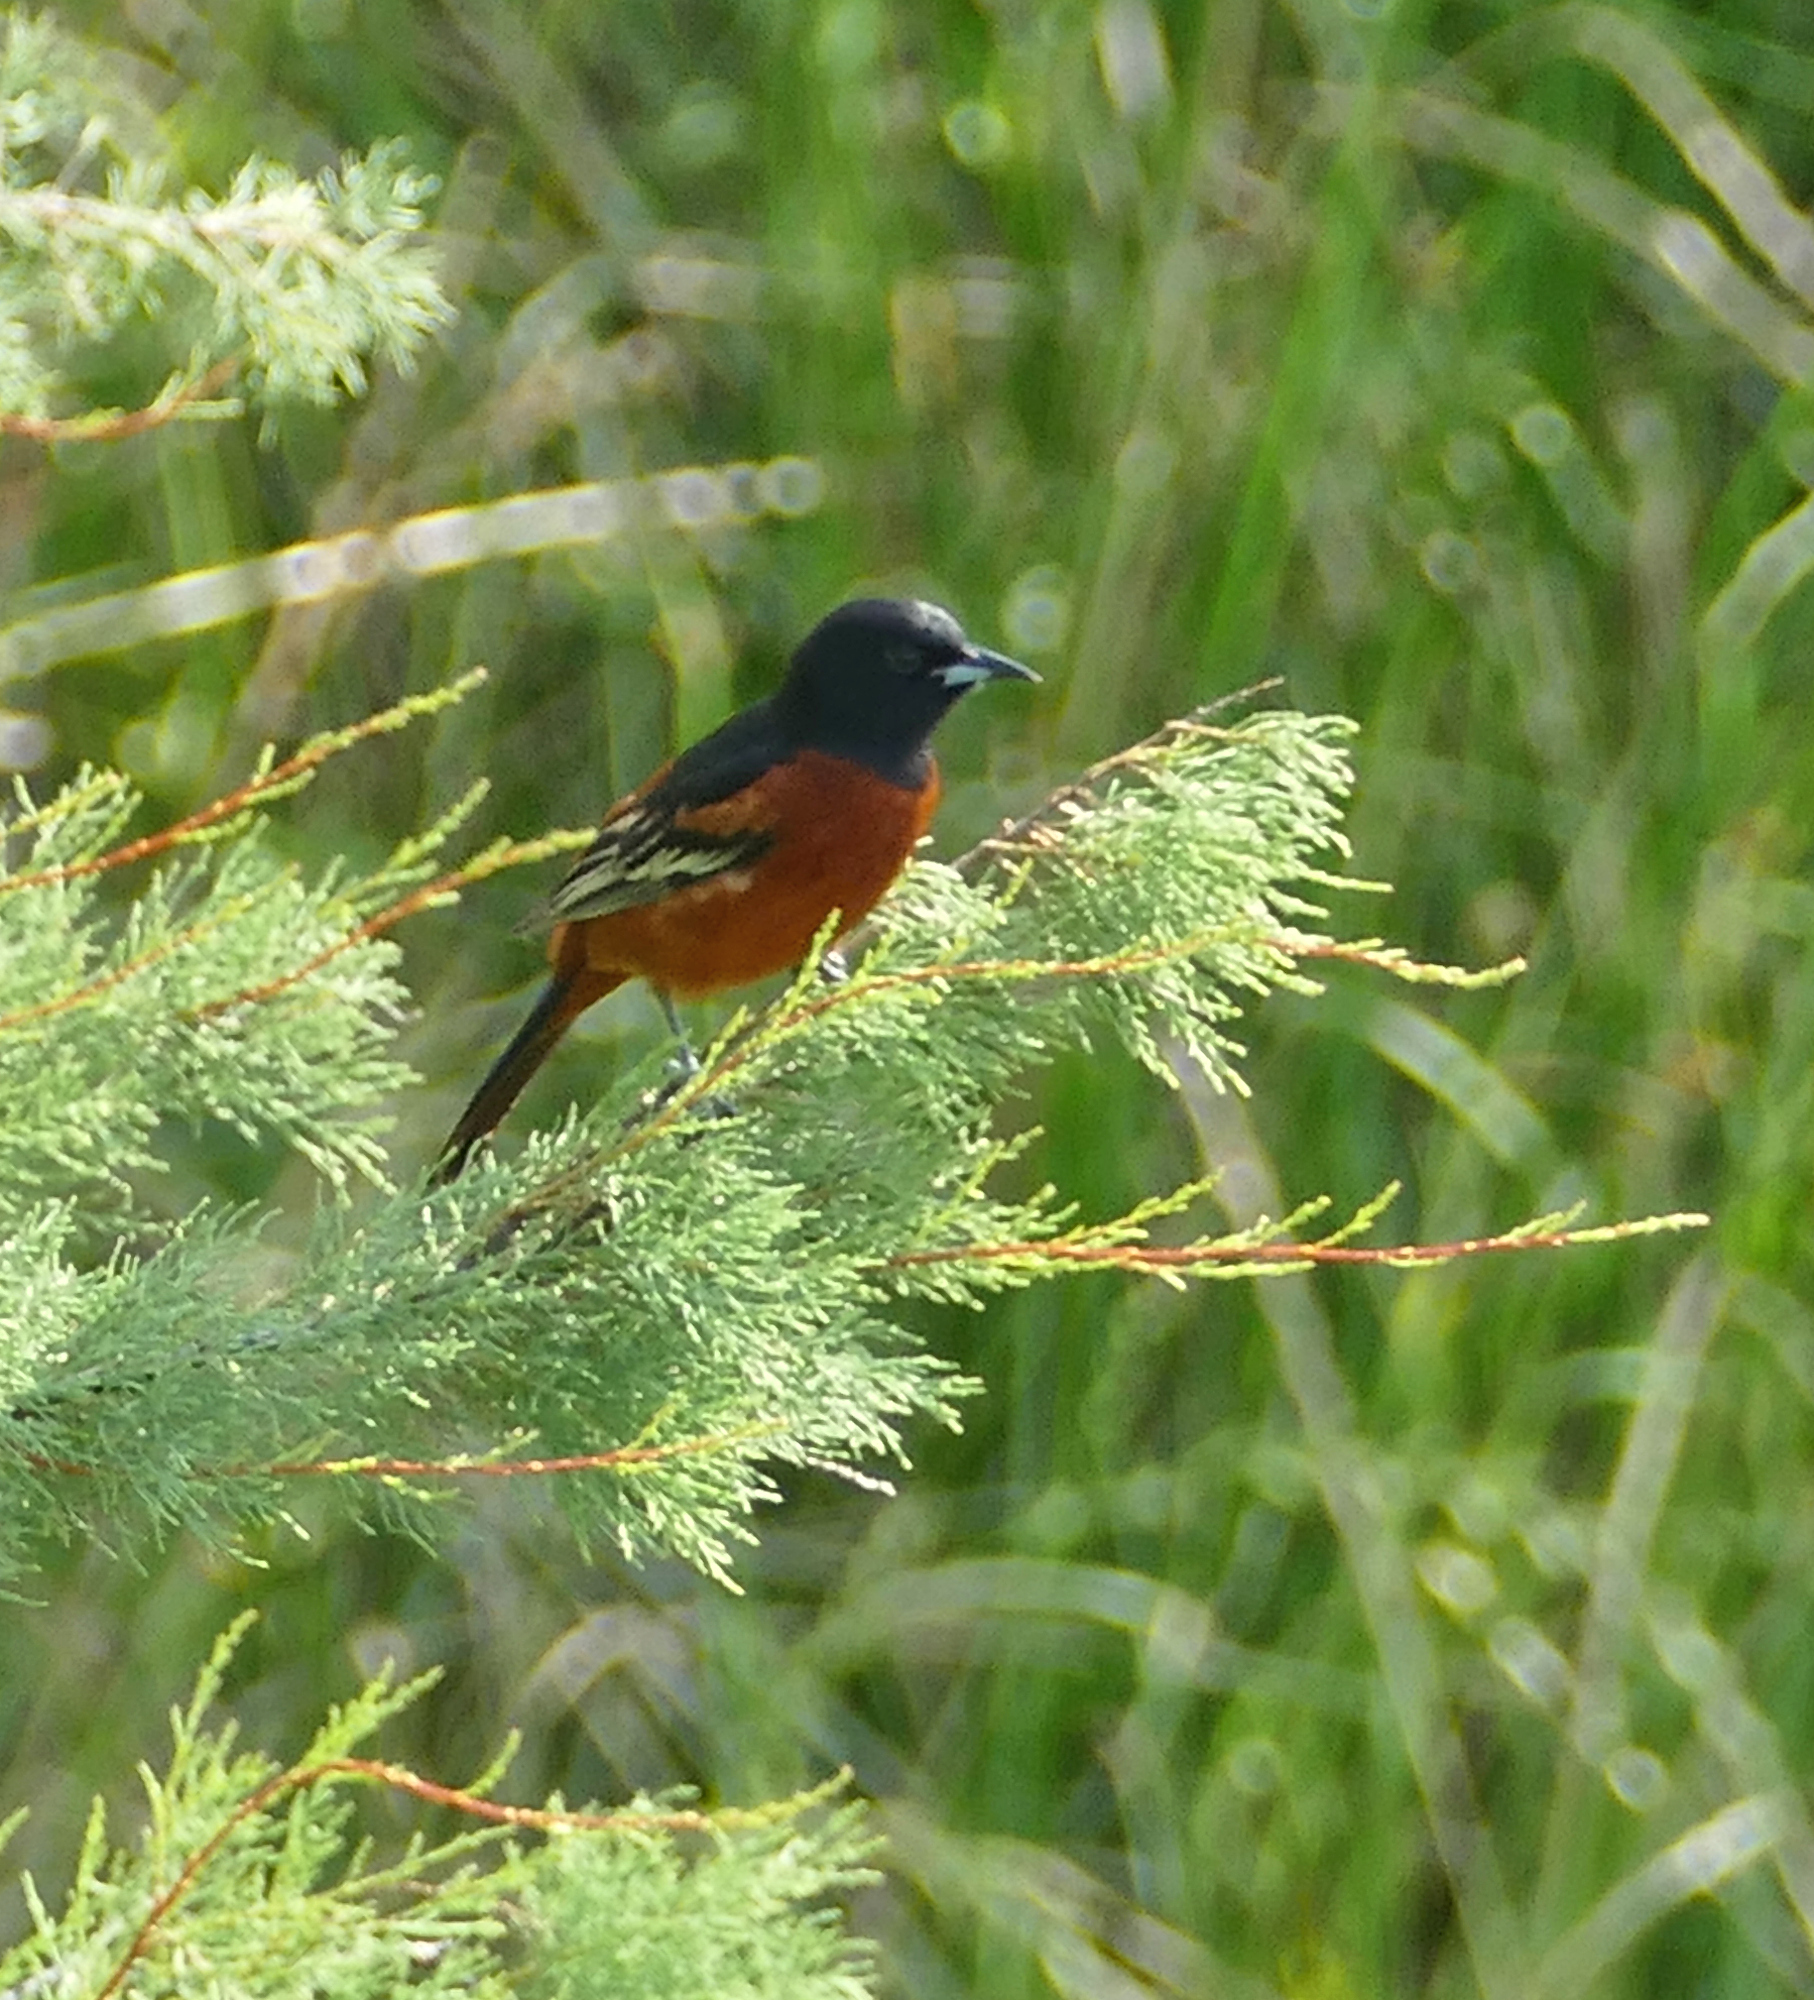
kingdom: Animalia
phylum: Chordata
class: Aves
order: Passeriformes
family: Icteridae
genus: Icterus
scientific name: Icterus spurius
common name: Orchard oriole
